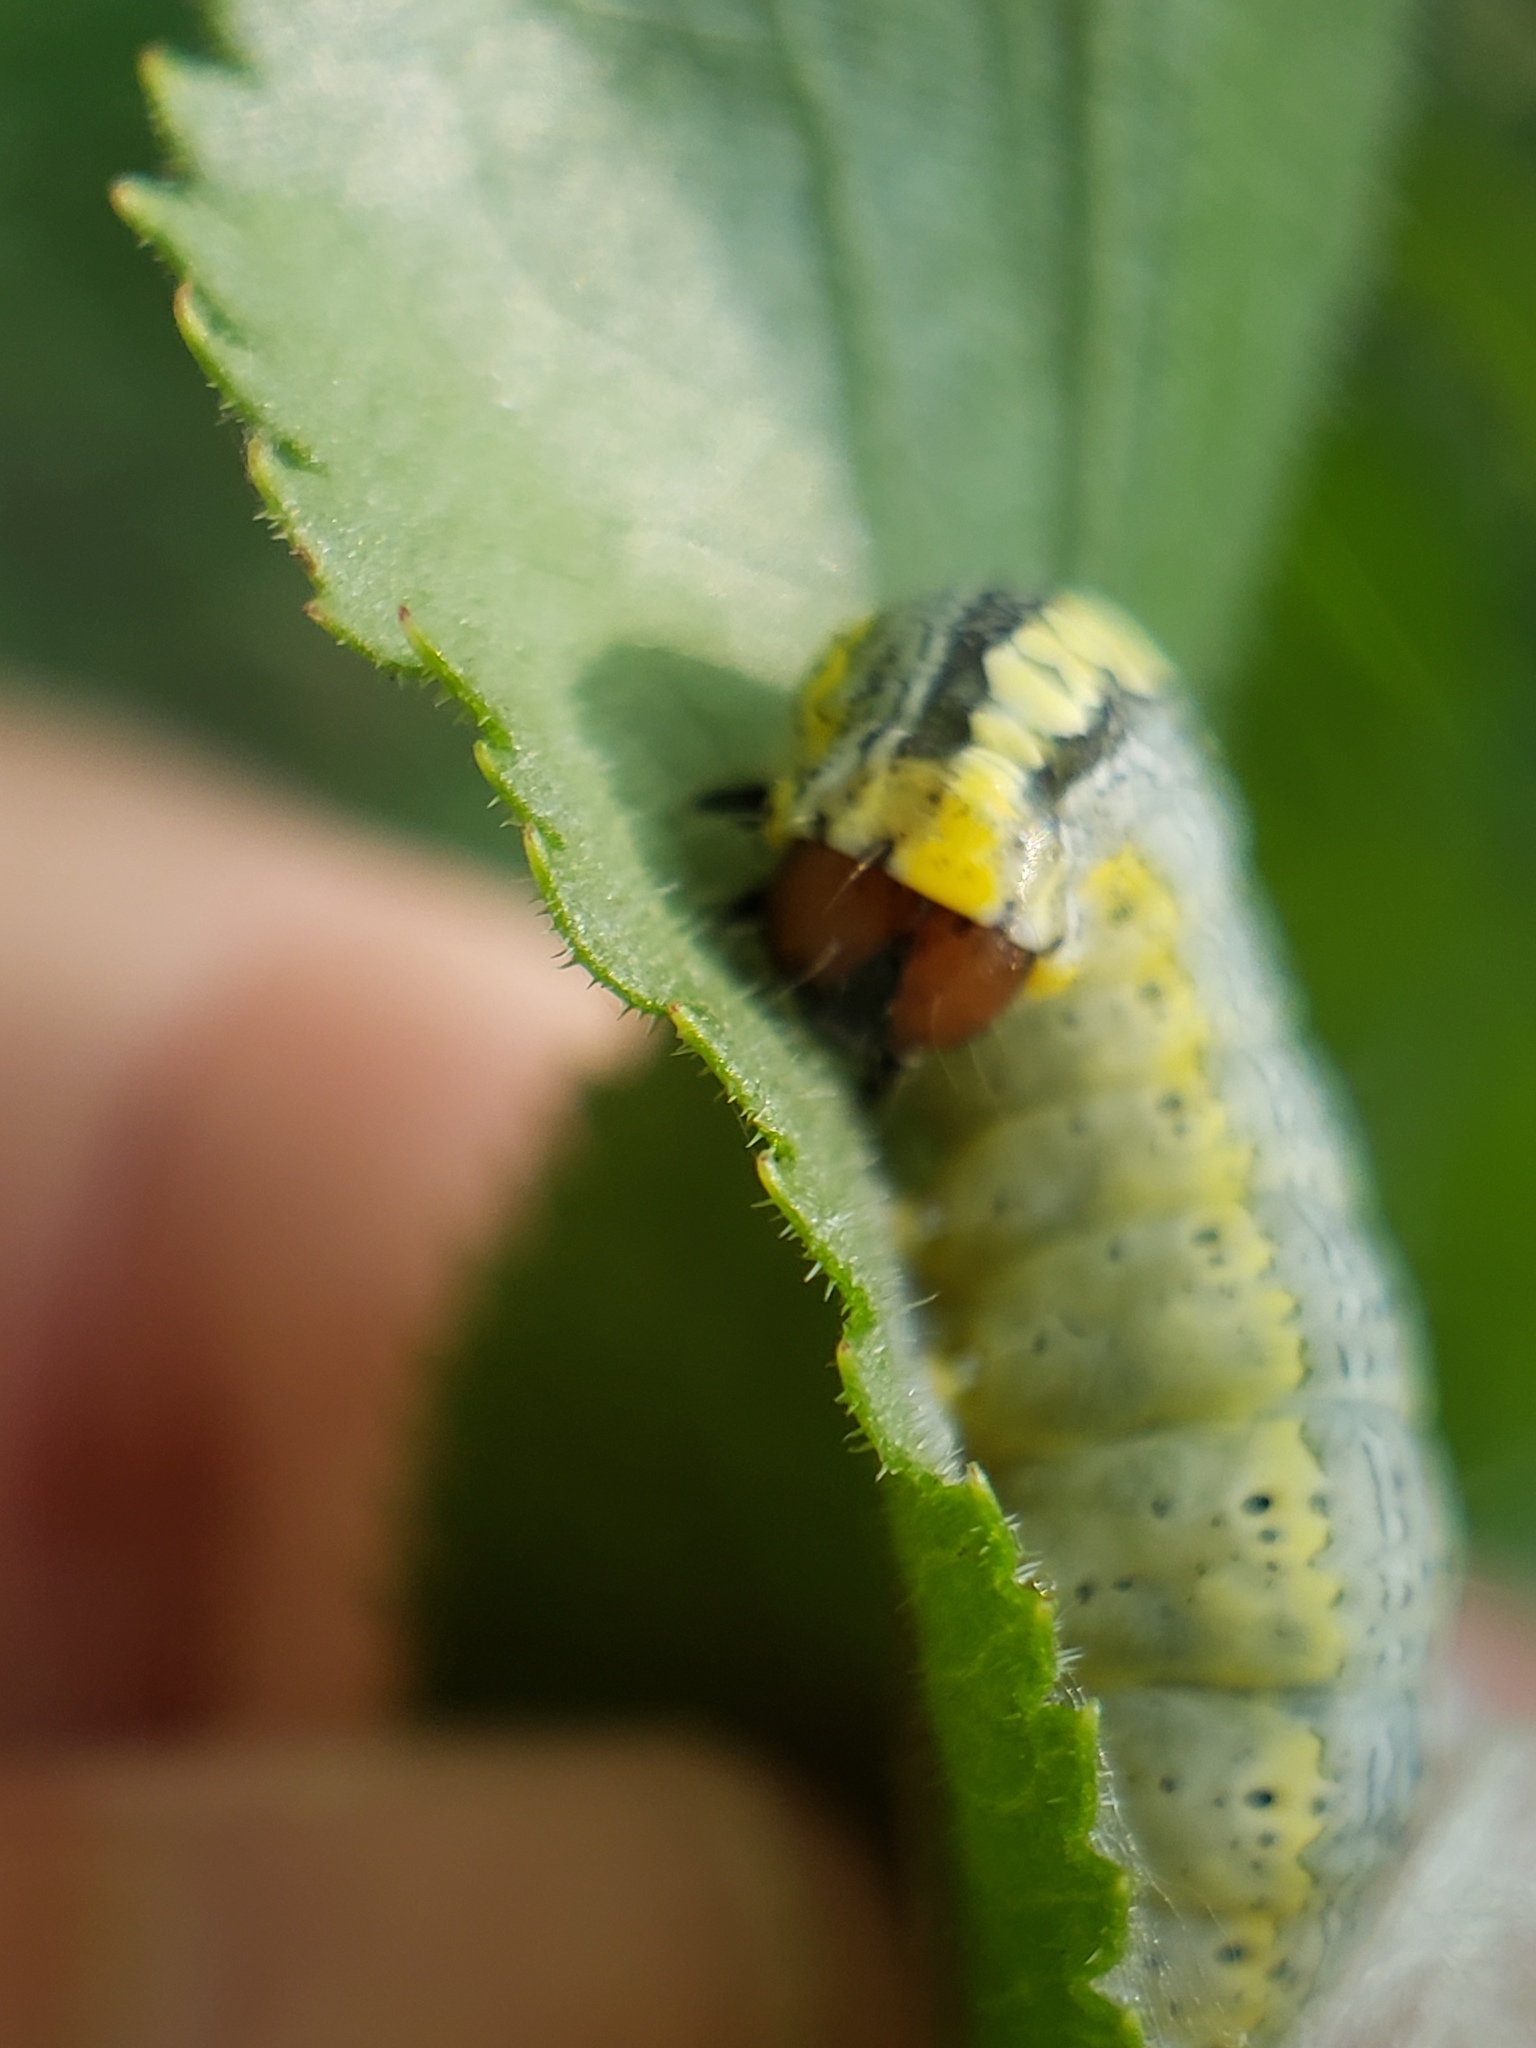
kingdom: Animalia
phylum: Arthropoda
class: Insecta
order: Lepidoptera
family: Noctuidae
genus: Zotheca
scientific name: Zotheca tranquilla
